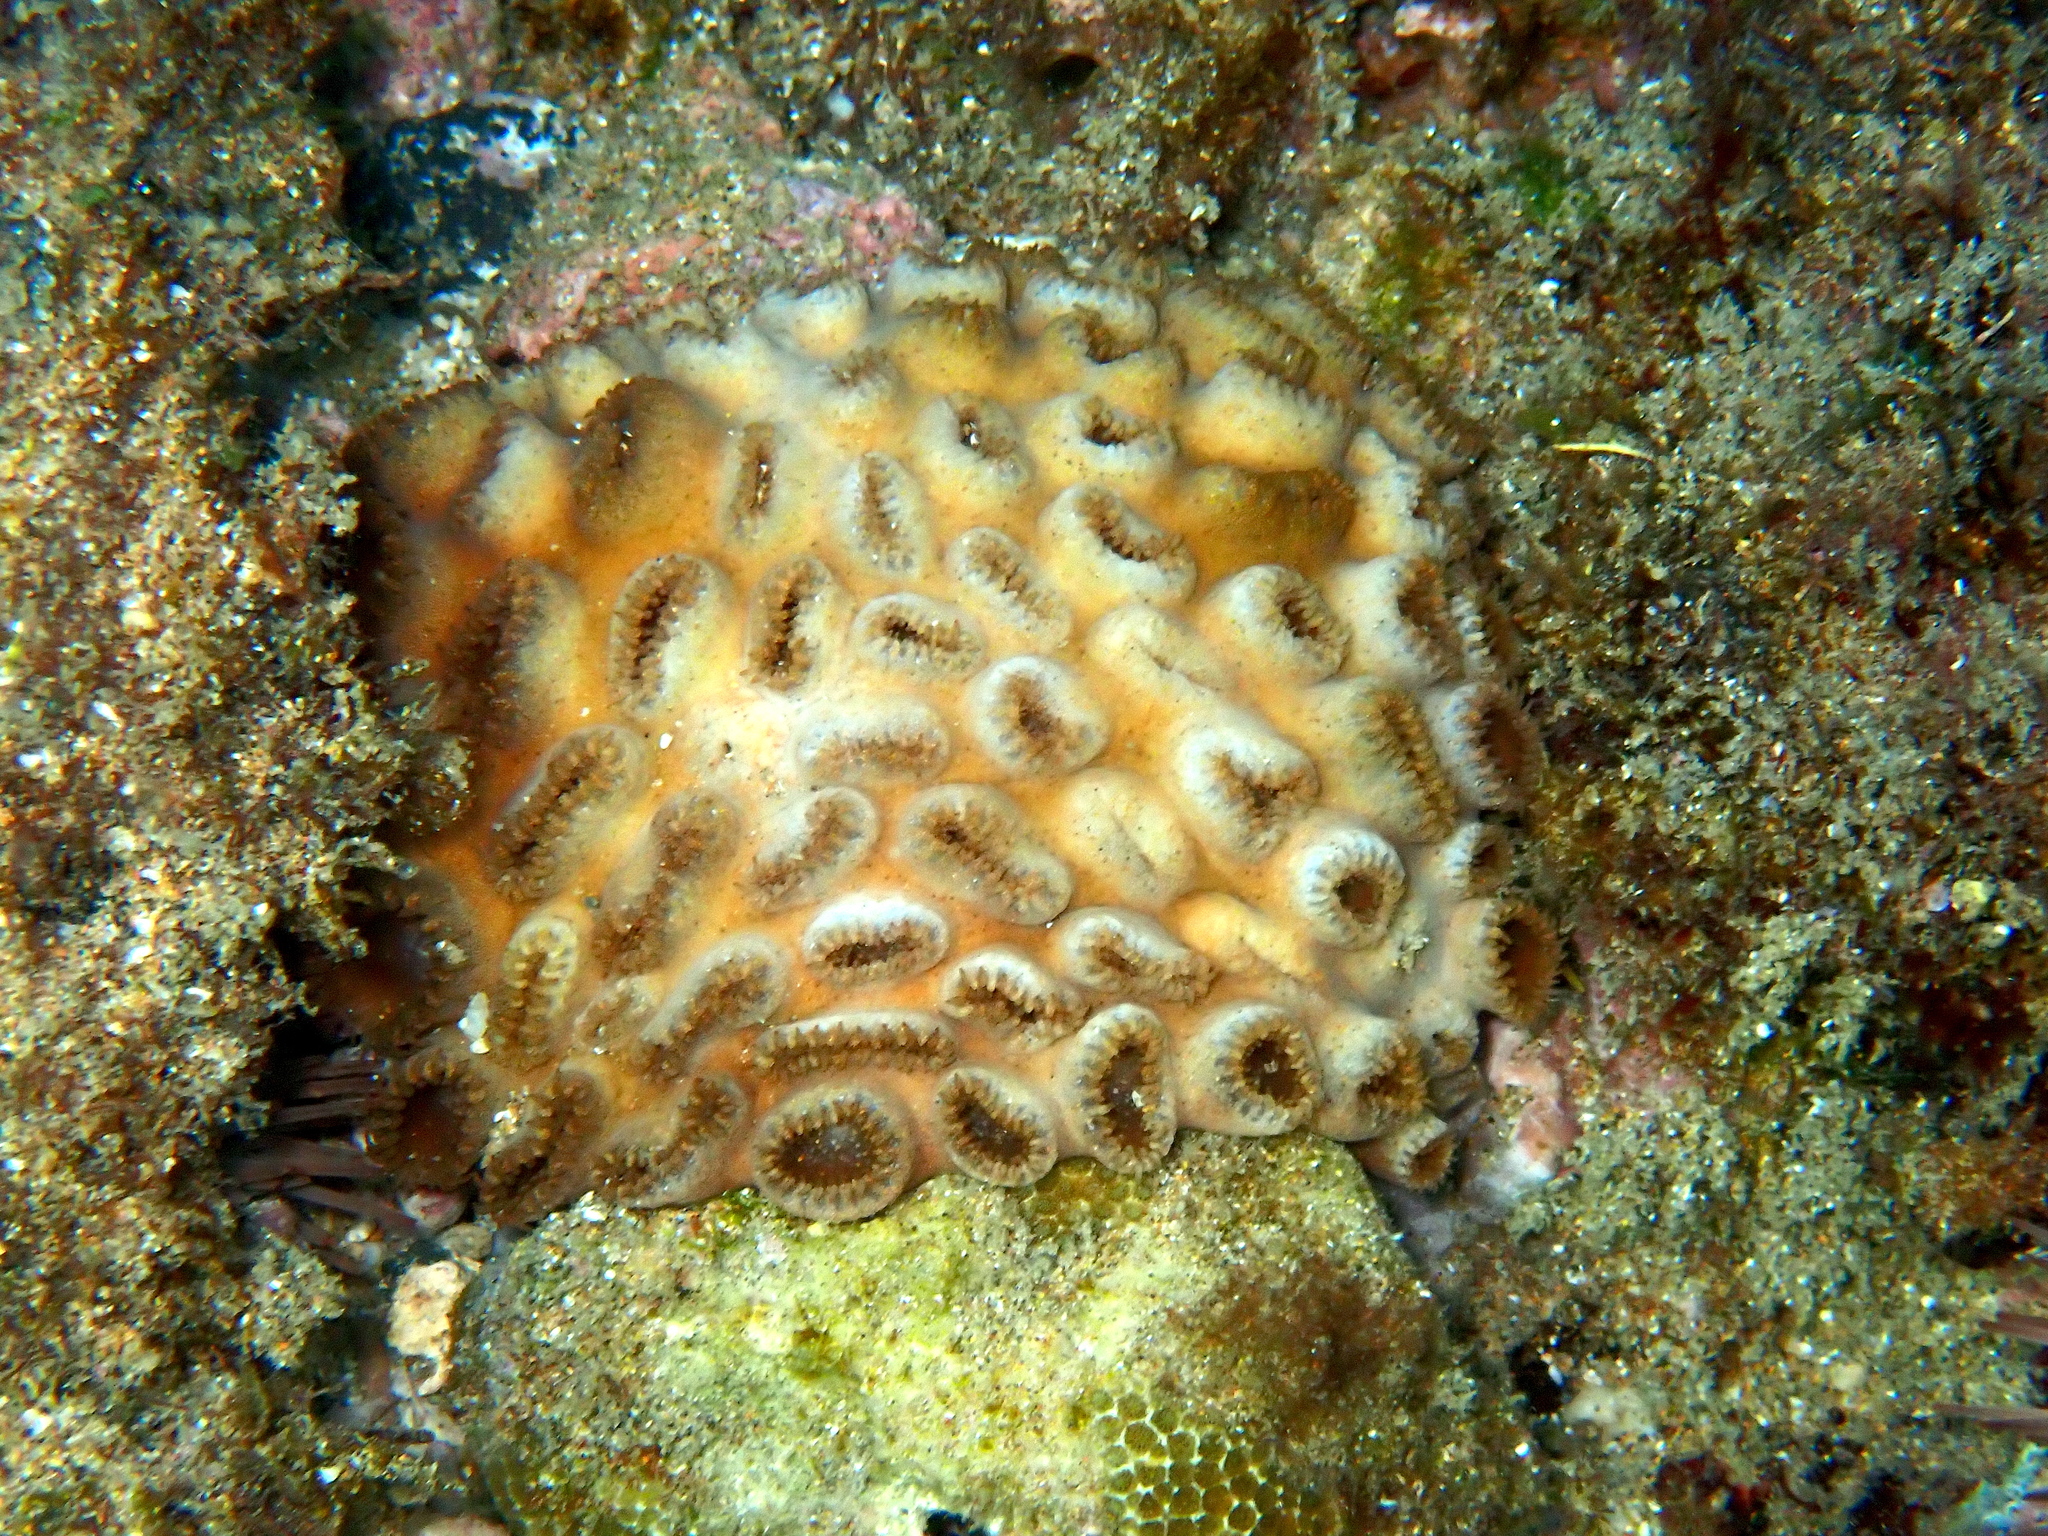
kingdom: Animalia
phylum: Cnidaria
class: Anthozoa
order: Zoantharia
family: Sphenopidae
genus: Palythoa
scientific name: Palythoa tuberculosa
